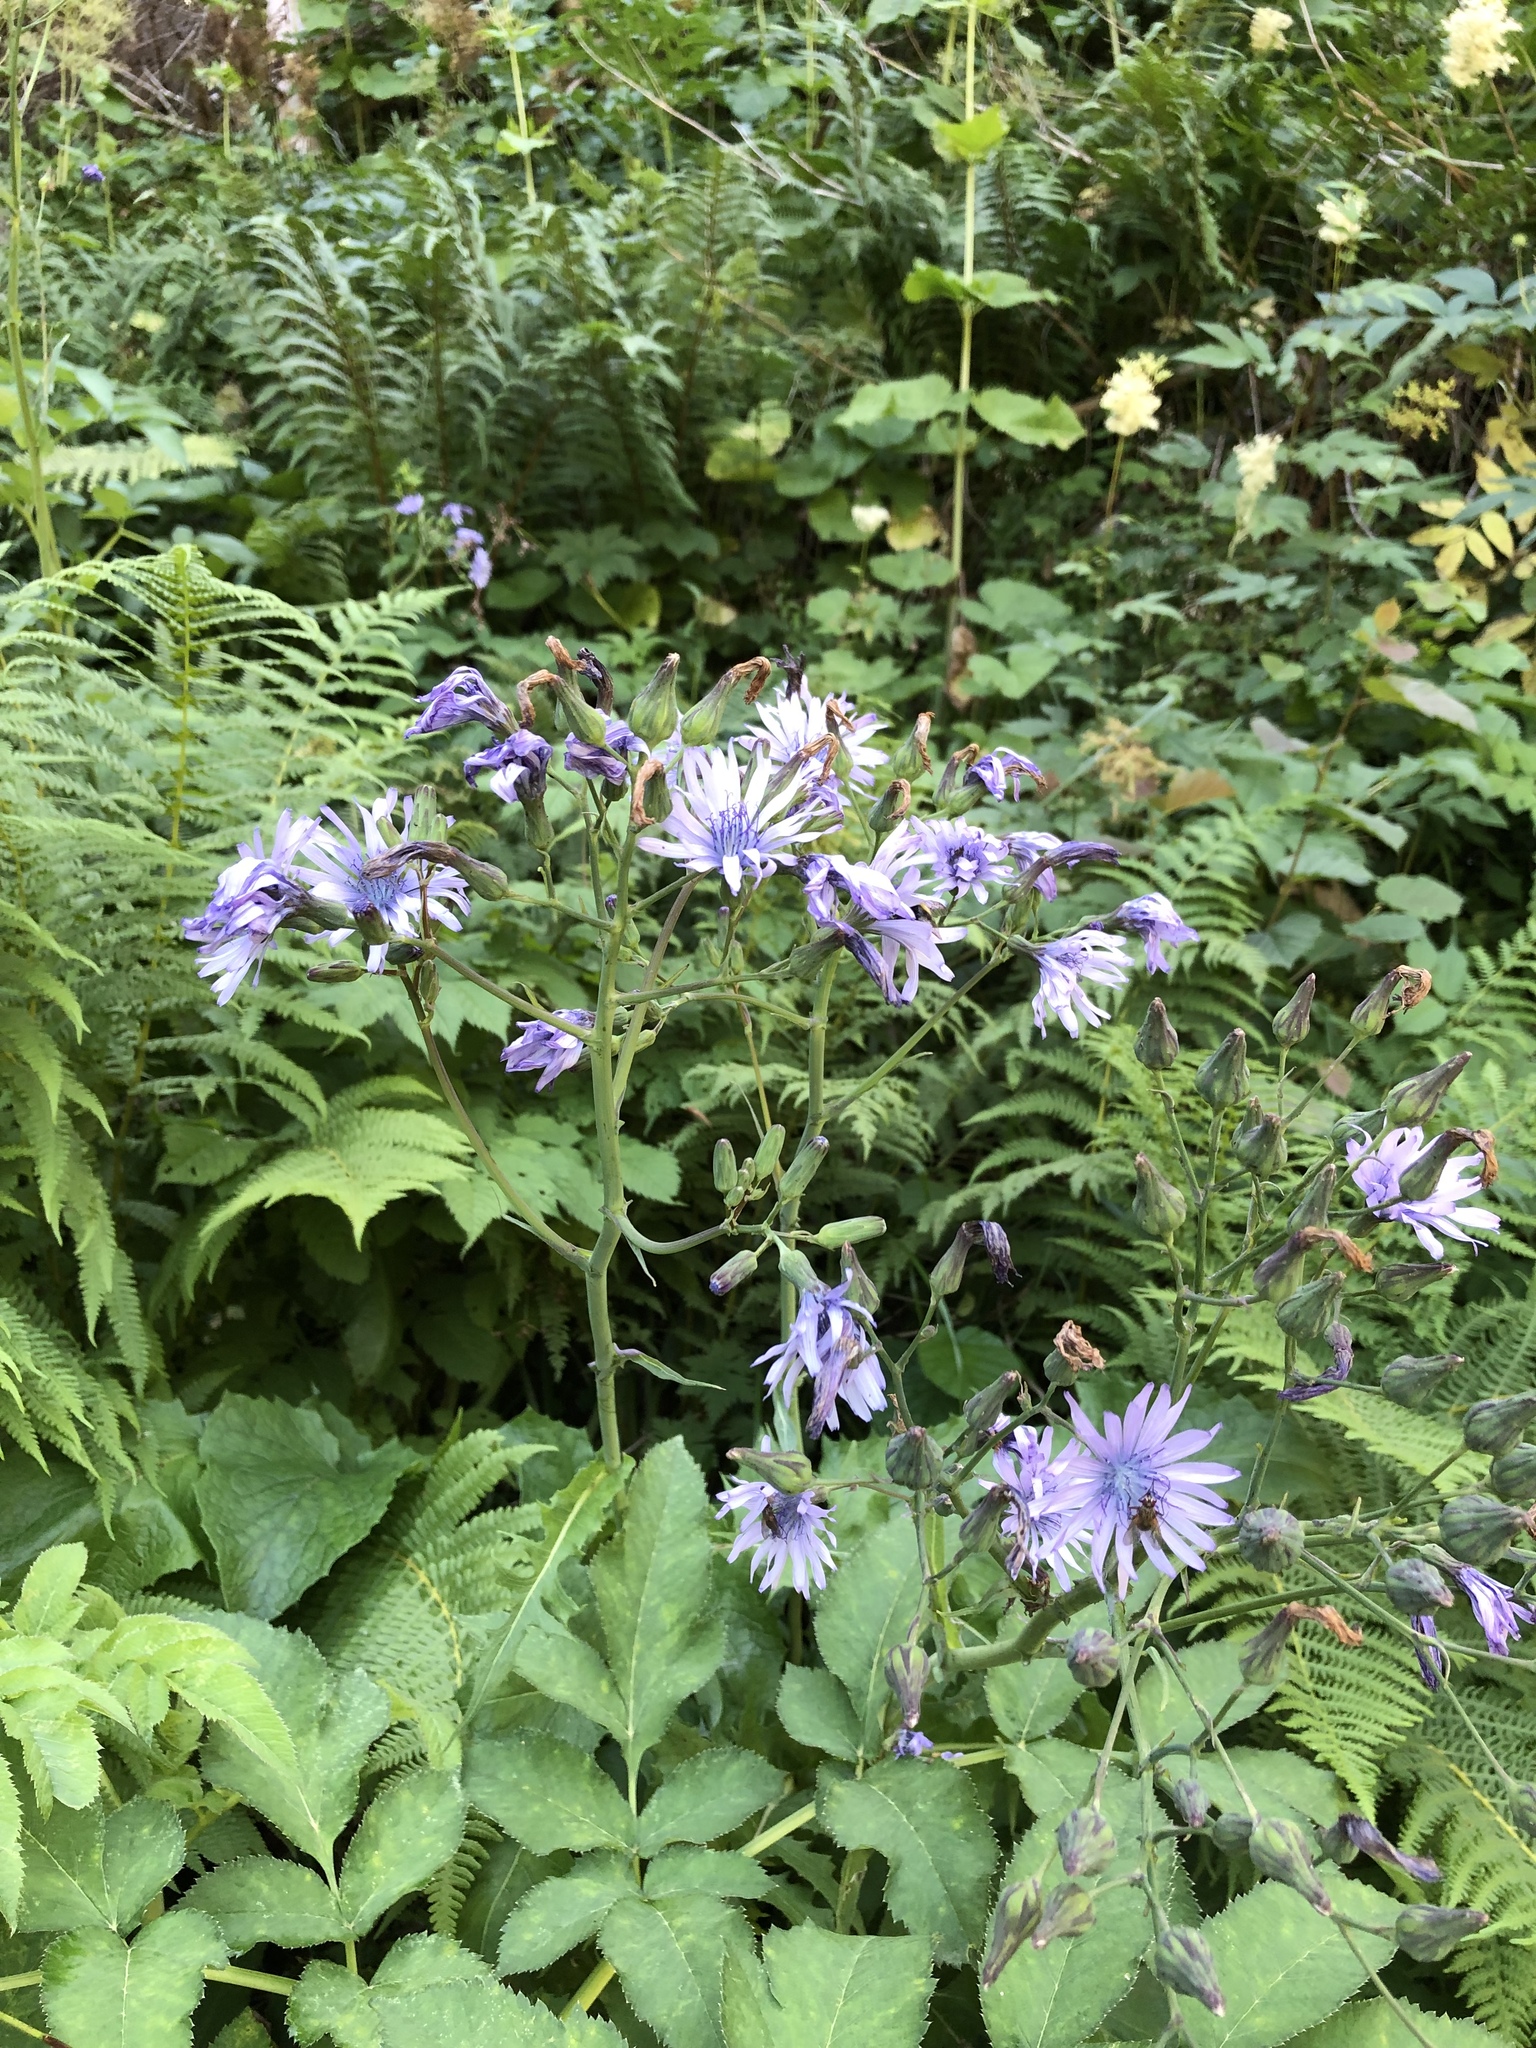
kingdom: Plantae
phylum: Tracheophyta
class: Magnoliopsida
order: Asterales
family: Asteraceae
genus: Lactuca
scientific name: Lactuca plumieri
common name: Hairless blue-sow-thistle
